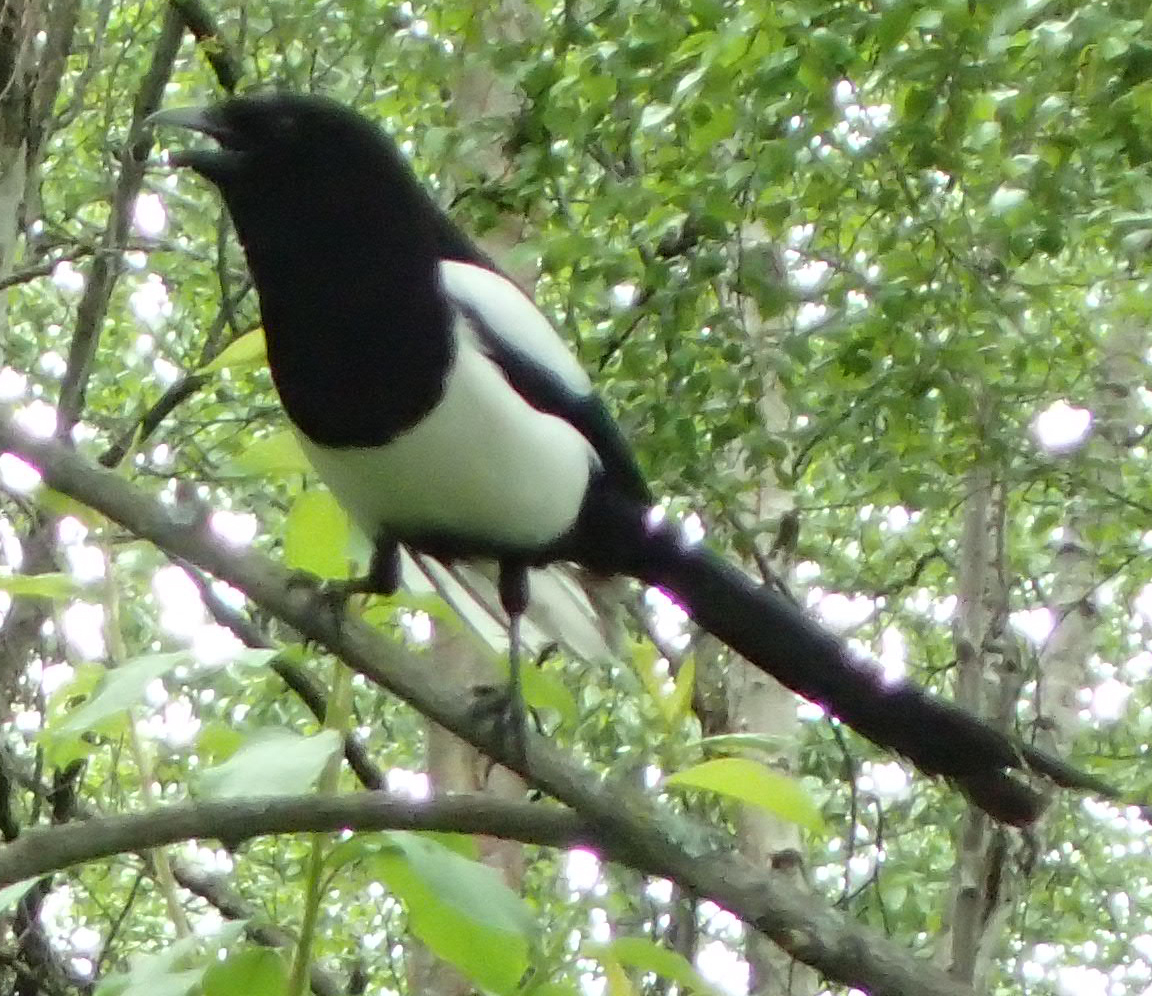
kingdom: Animalia
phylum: Chordata
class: Aves
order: Passeriformes
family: Corvidae
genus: Pica
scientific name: Pica hudsonia
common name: Black-billed magpie
